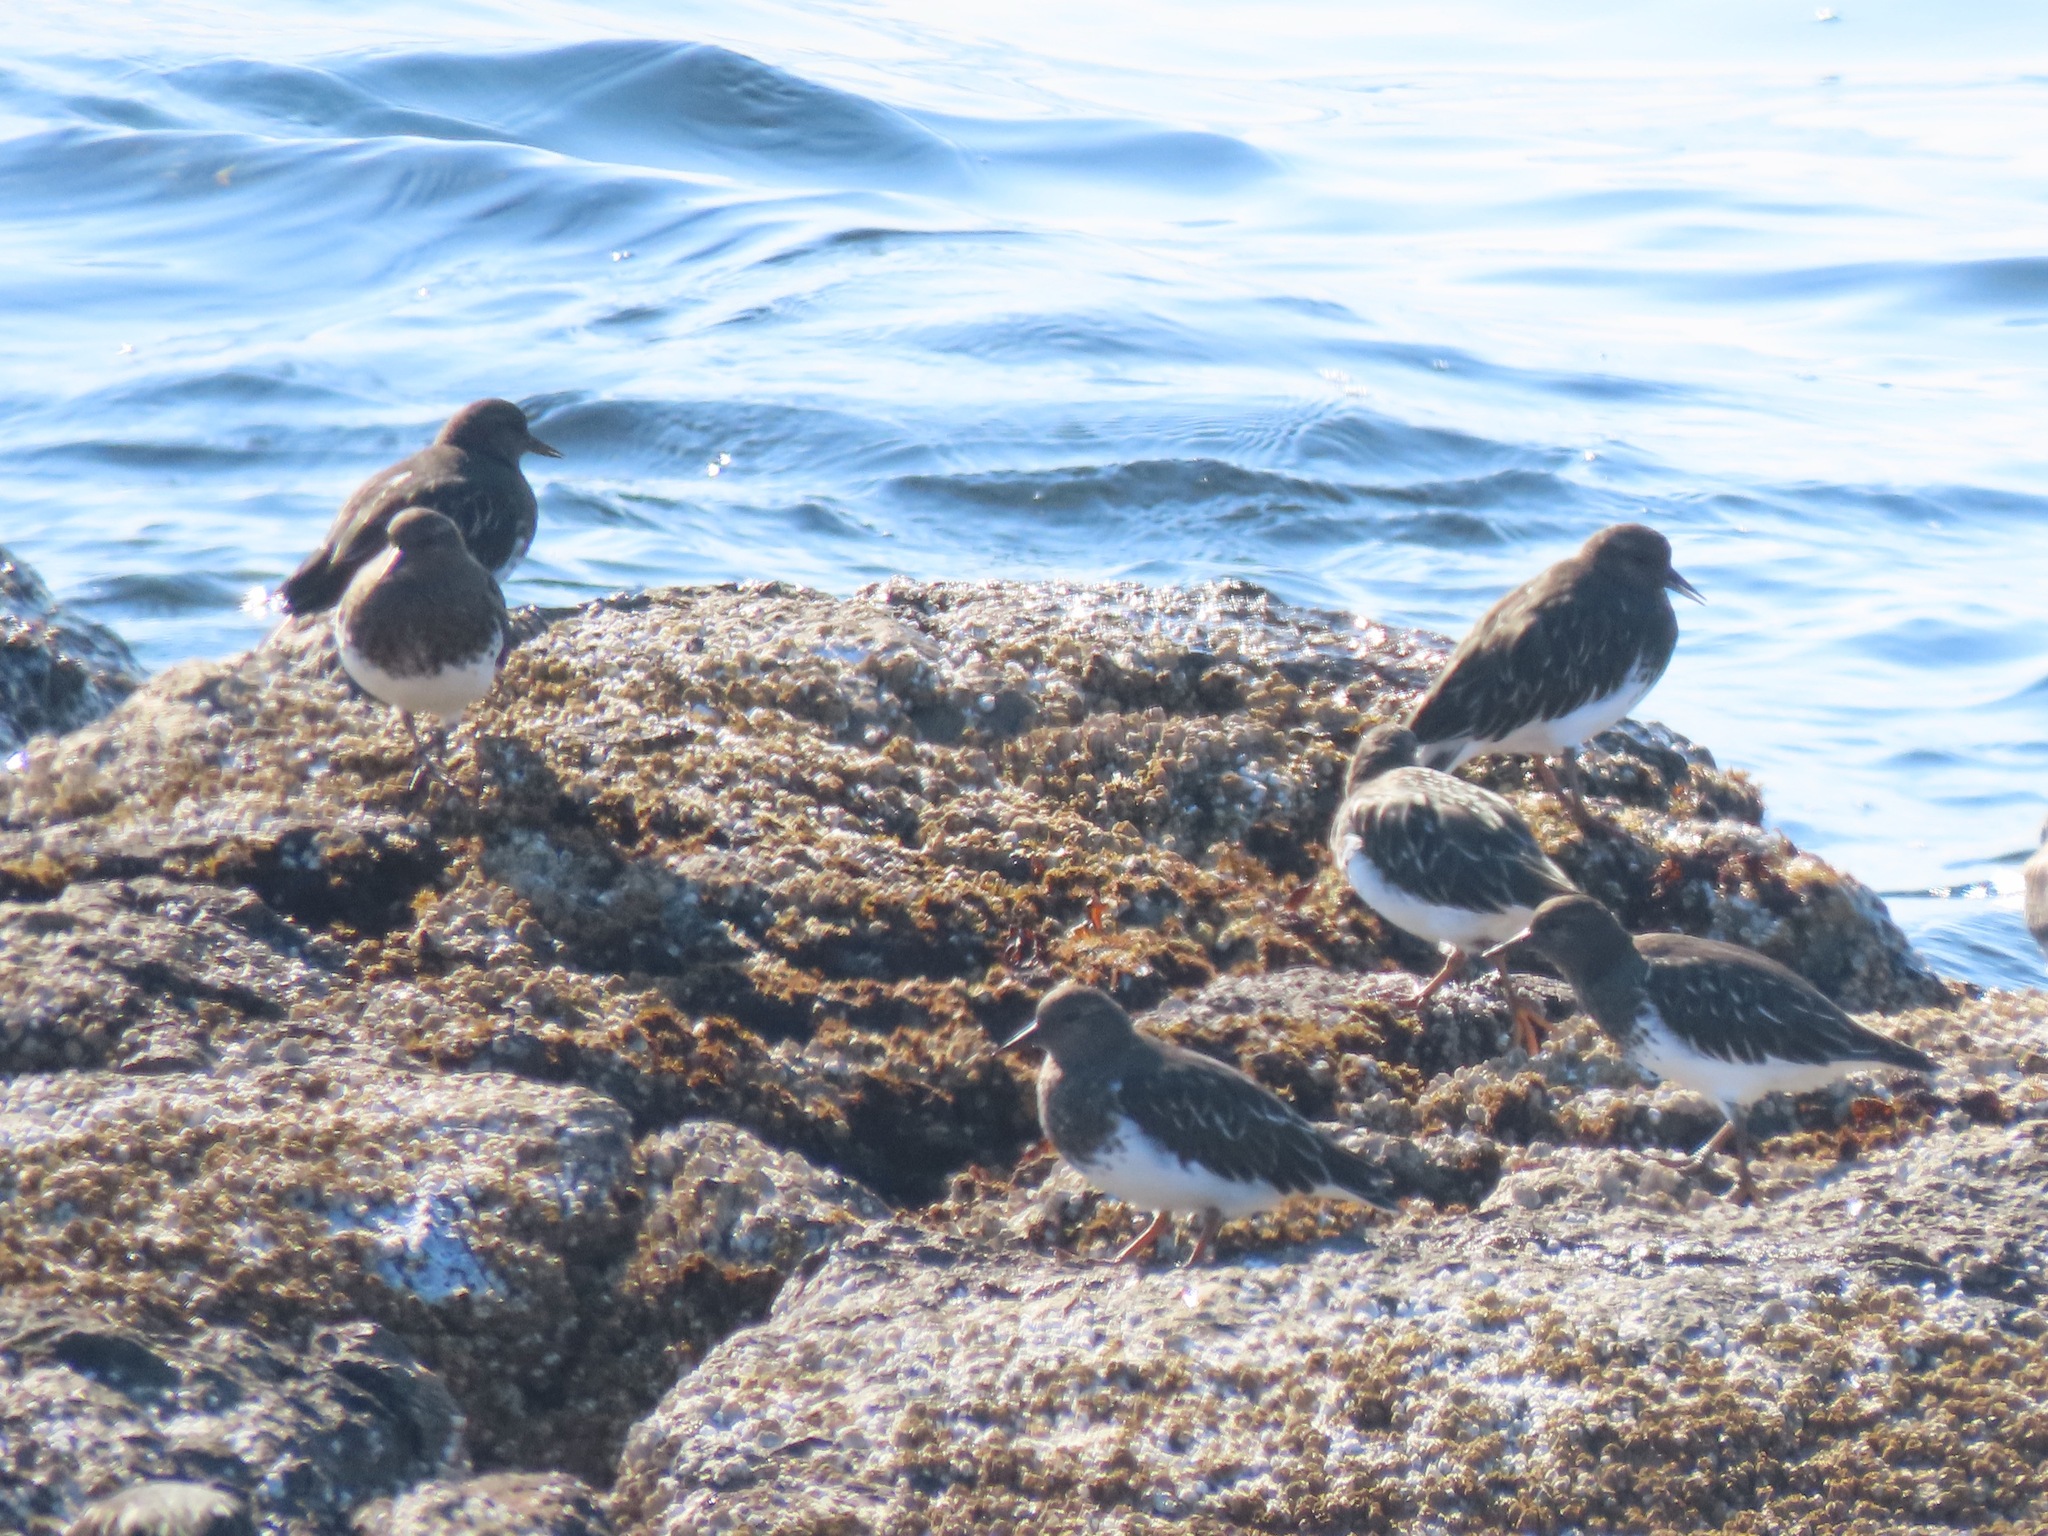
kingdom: Animalia
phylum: Chordata
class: Aves
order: Charadriiformes
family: Scolopacidae
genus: Arenaria
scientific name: Arenaria melanocephala
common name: Black turnstone
